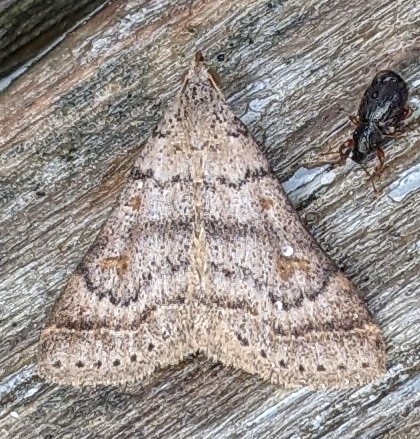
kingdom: Animalia
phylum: Arthropoda
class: Insecta
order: Lepidoptera
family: Erebidae
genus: Bleptina
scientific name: Bleptina caradrinalis
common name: Bent-winged owlet
